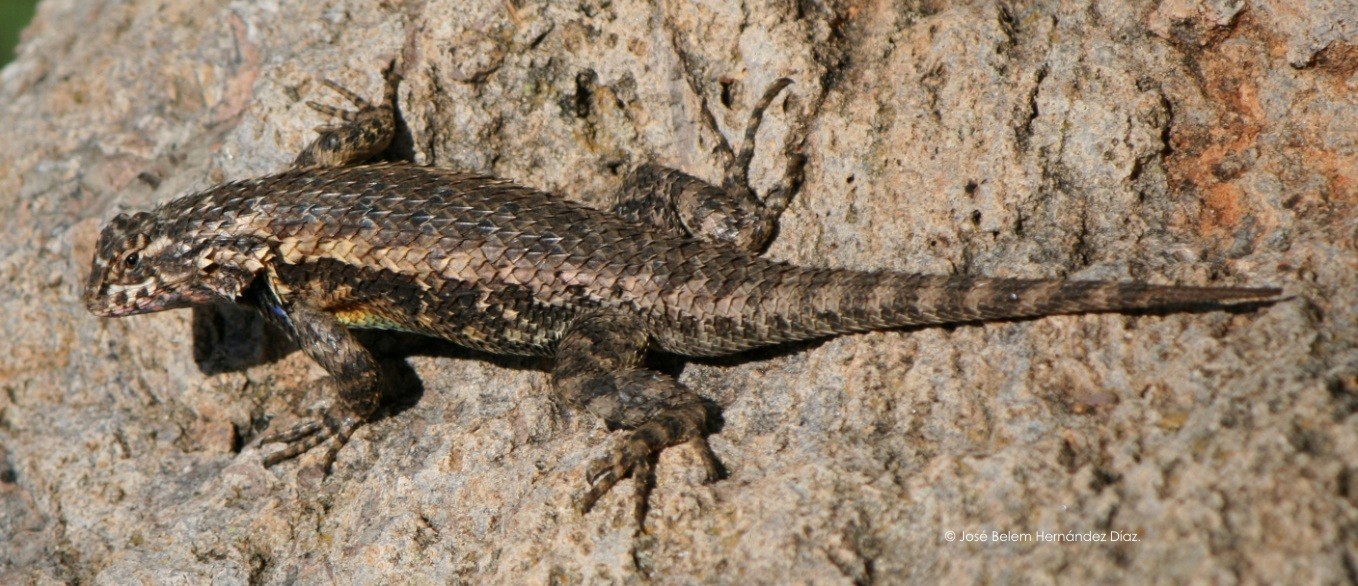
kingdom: Animalia
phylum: Chordata
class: Squamata
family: Phrynosomatidae
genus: Sceloporus
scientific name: Sceloporus spinosus
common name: Blue-spotted spiny lizard [caeruleopunctatus]
